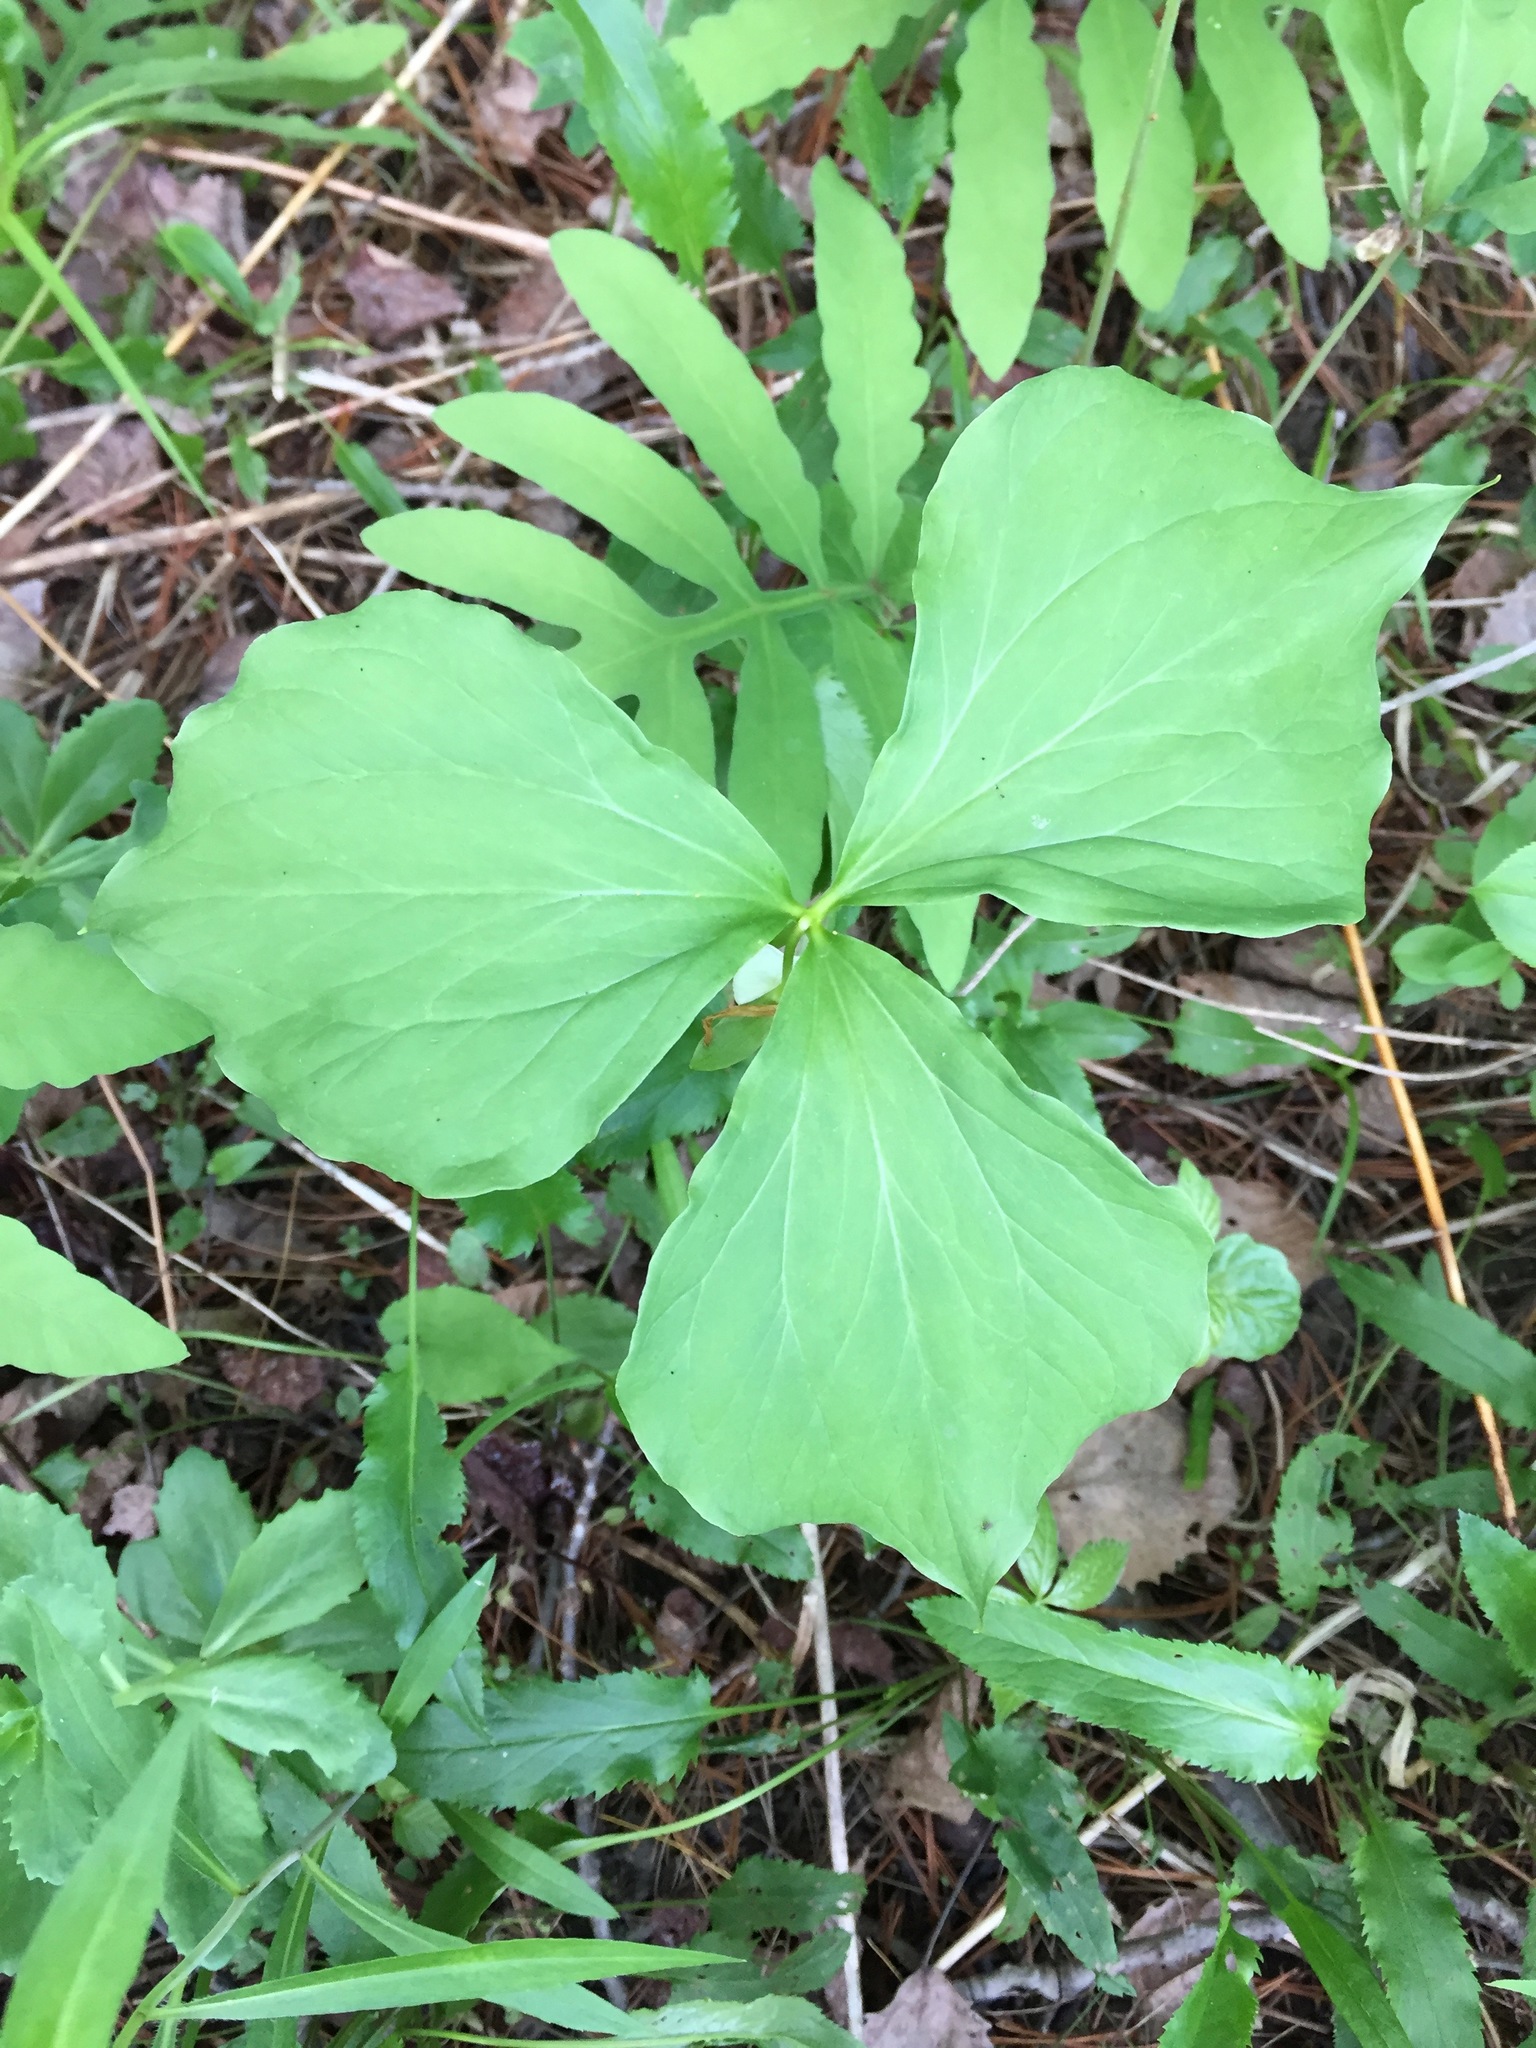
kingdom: Plantae
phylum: Tracheophyta
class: Liliopsida
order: Liliales
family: Melanthiaceae
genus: Trillium
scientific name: Trillium cernuum
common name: Nodding trillium
